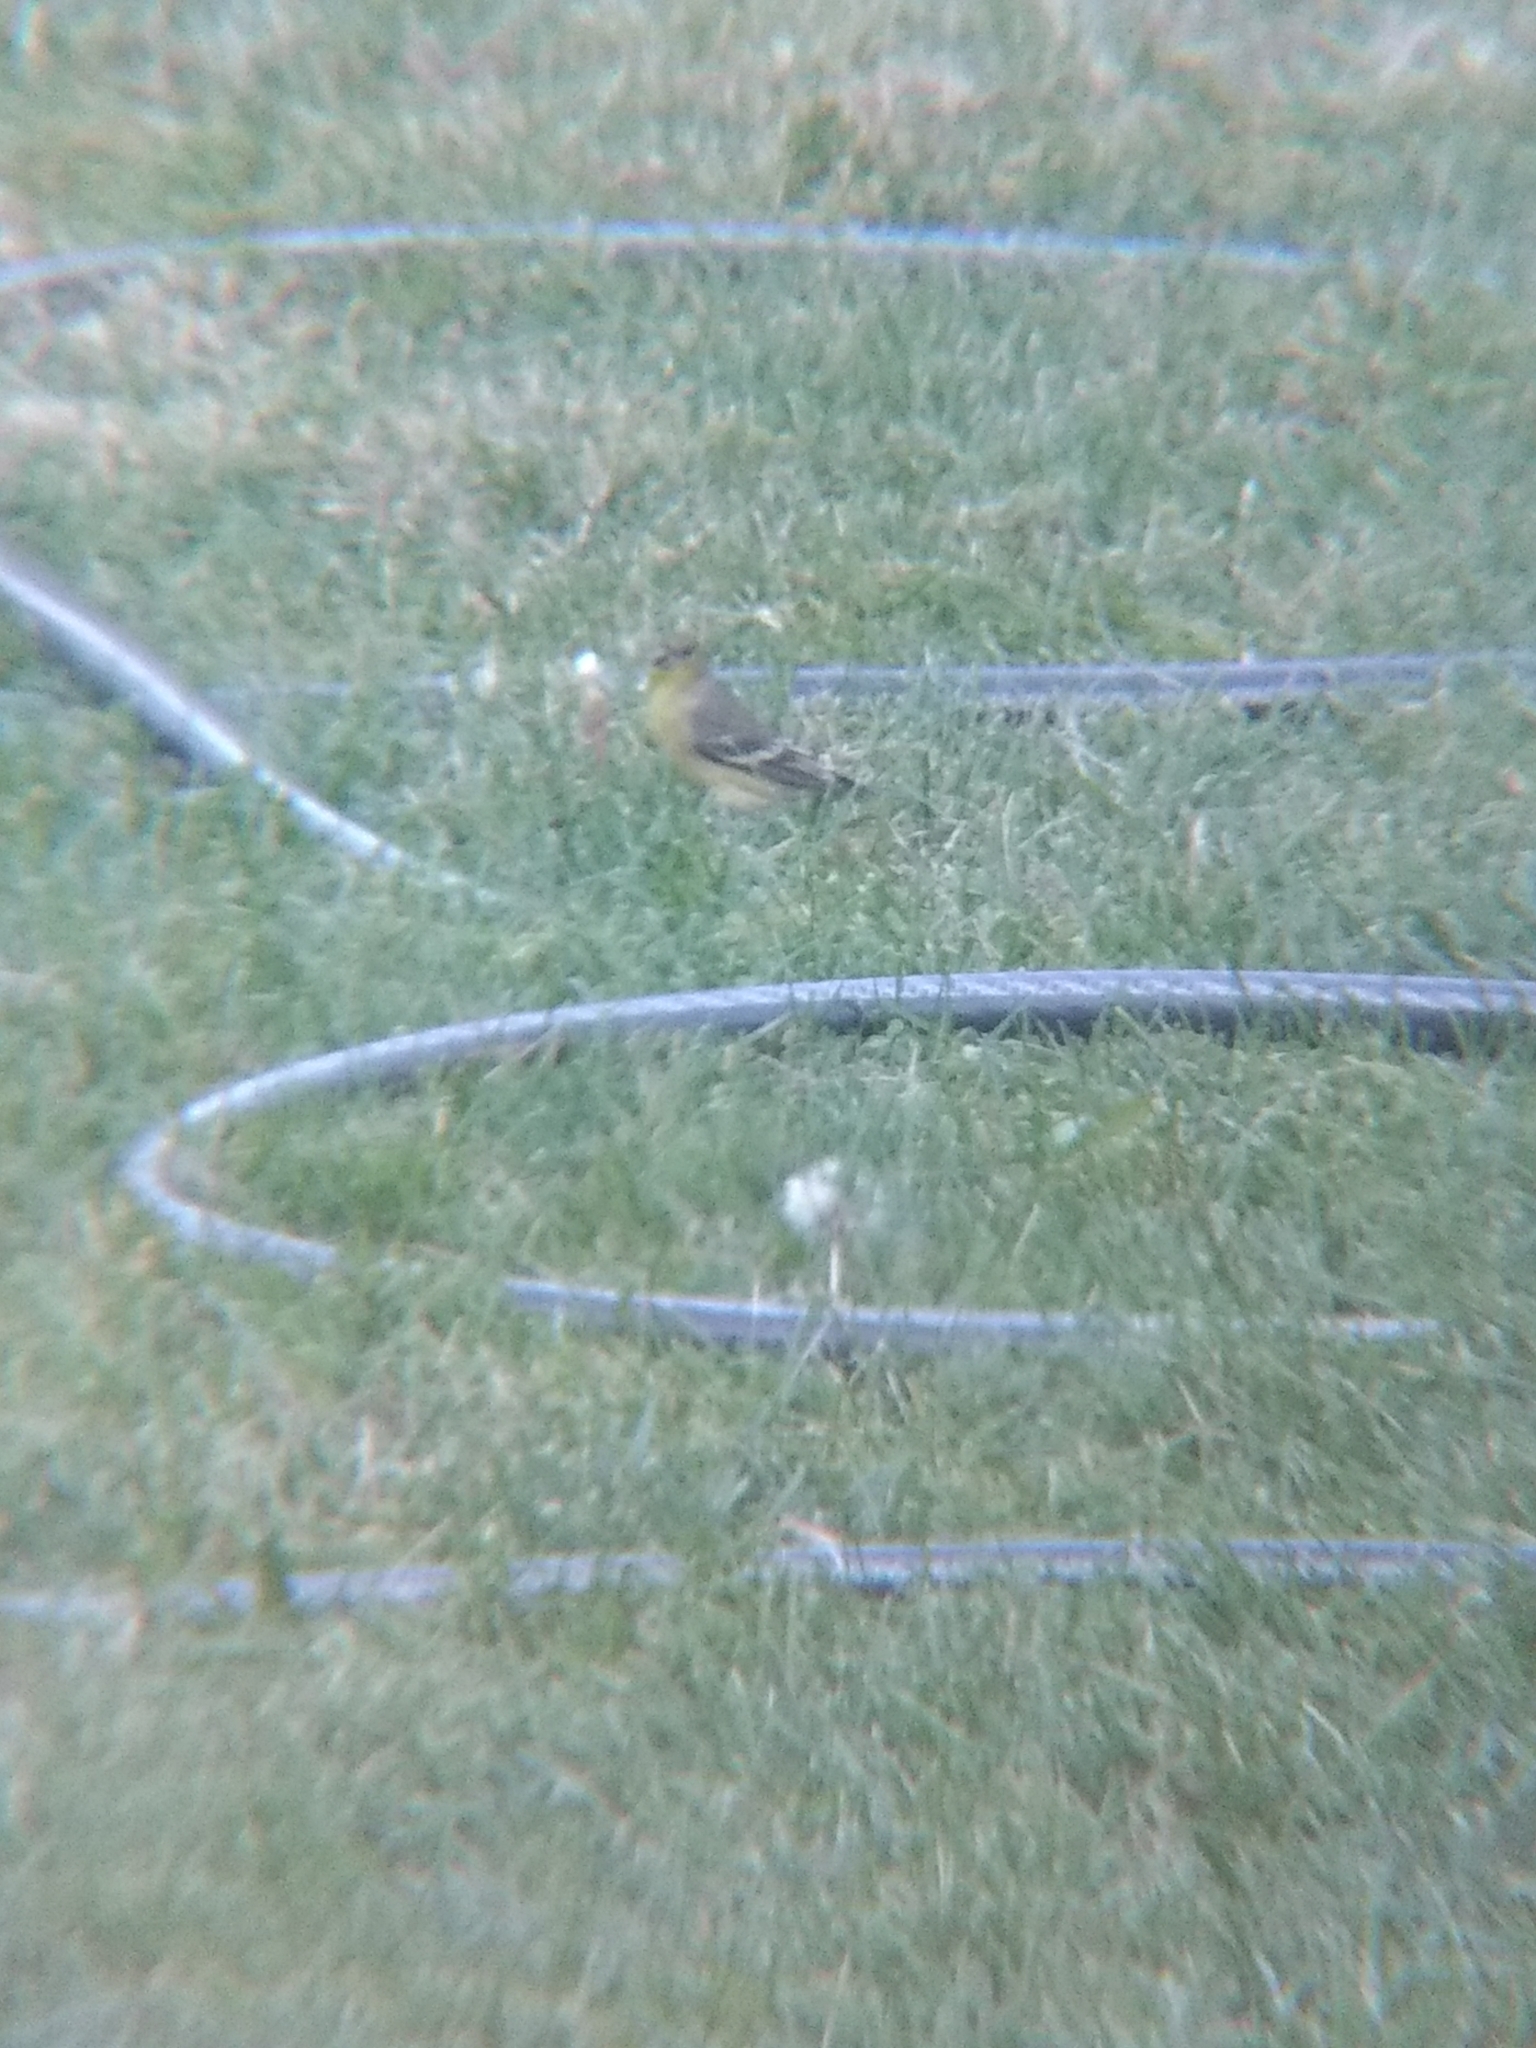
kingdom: Animalia
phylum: Chordata
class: Aves
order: Passeriformes
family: Fringillidae
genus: Spinus
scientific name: Spinus psaltria
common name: Lesser goldfinch
